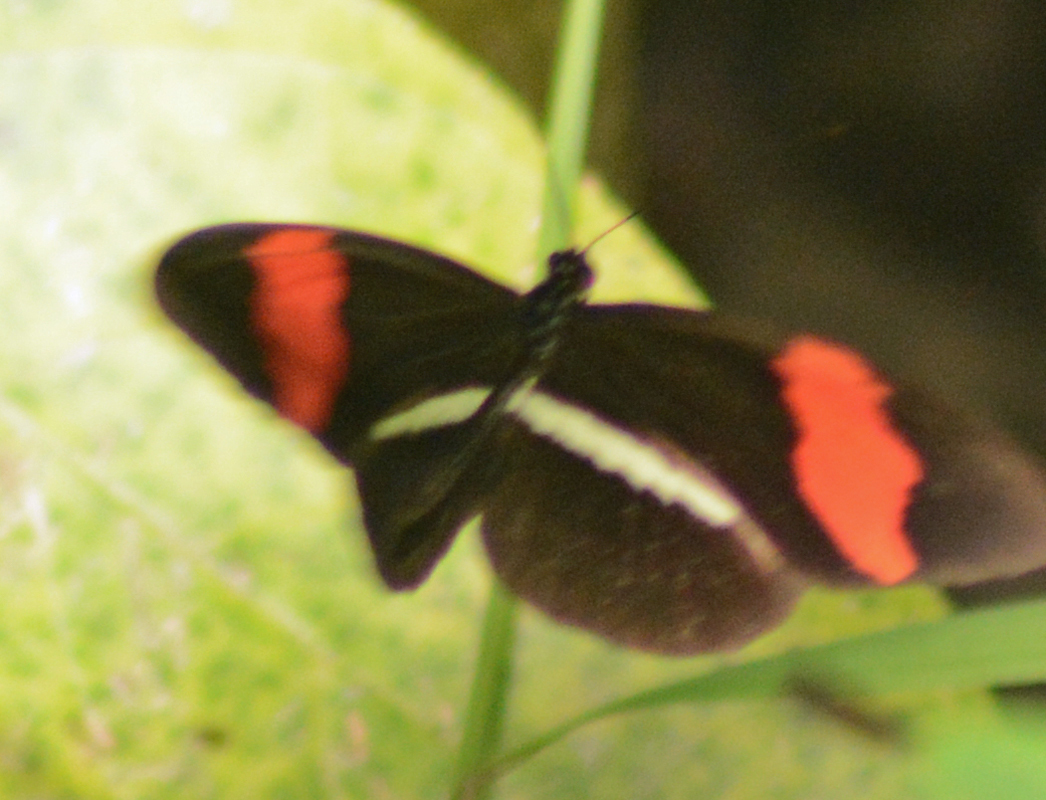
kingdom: Animalia
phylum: Arthropoda
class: Insecta
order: Lepidoptera
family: Nymphalidae
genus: Heliconius
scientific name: Heliconius erato
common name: Common patch longwing
